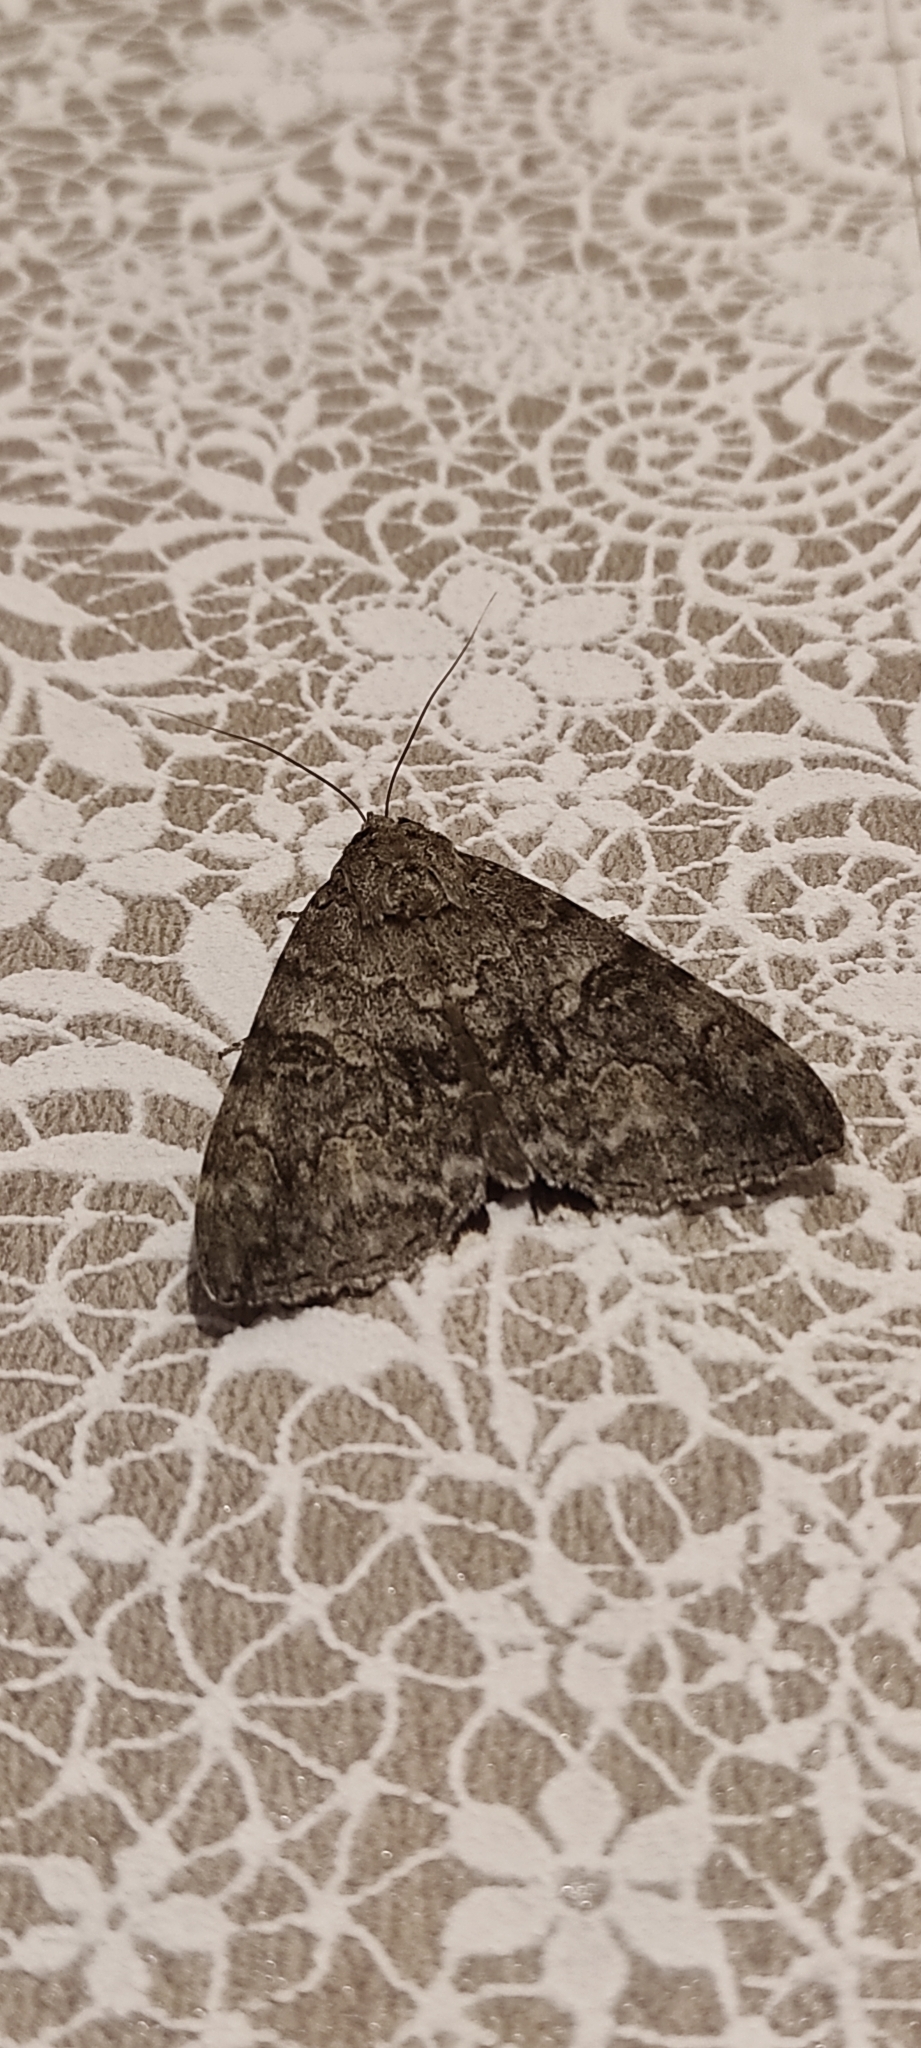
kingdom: Animalia
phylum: Arthropoda
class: Insecta
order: Lepidoptera
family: Erebidae
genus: Catocala
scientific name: Catocala nupta
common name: Red underwing
